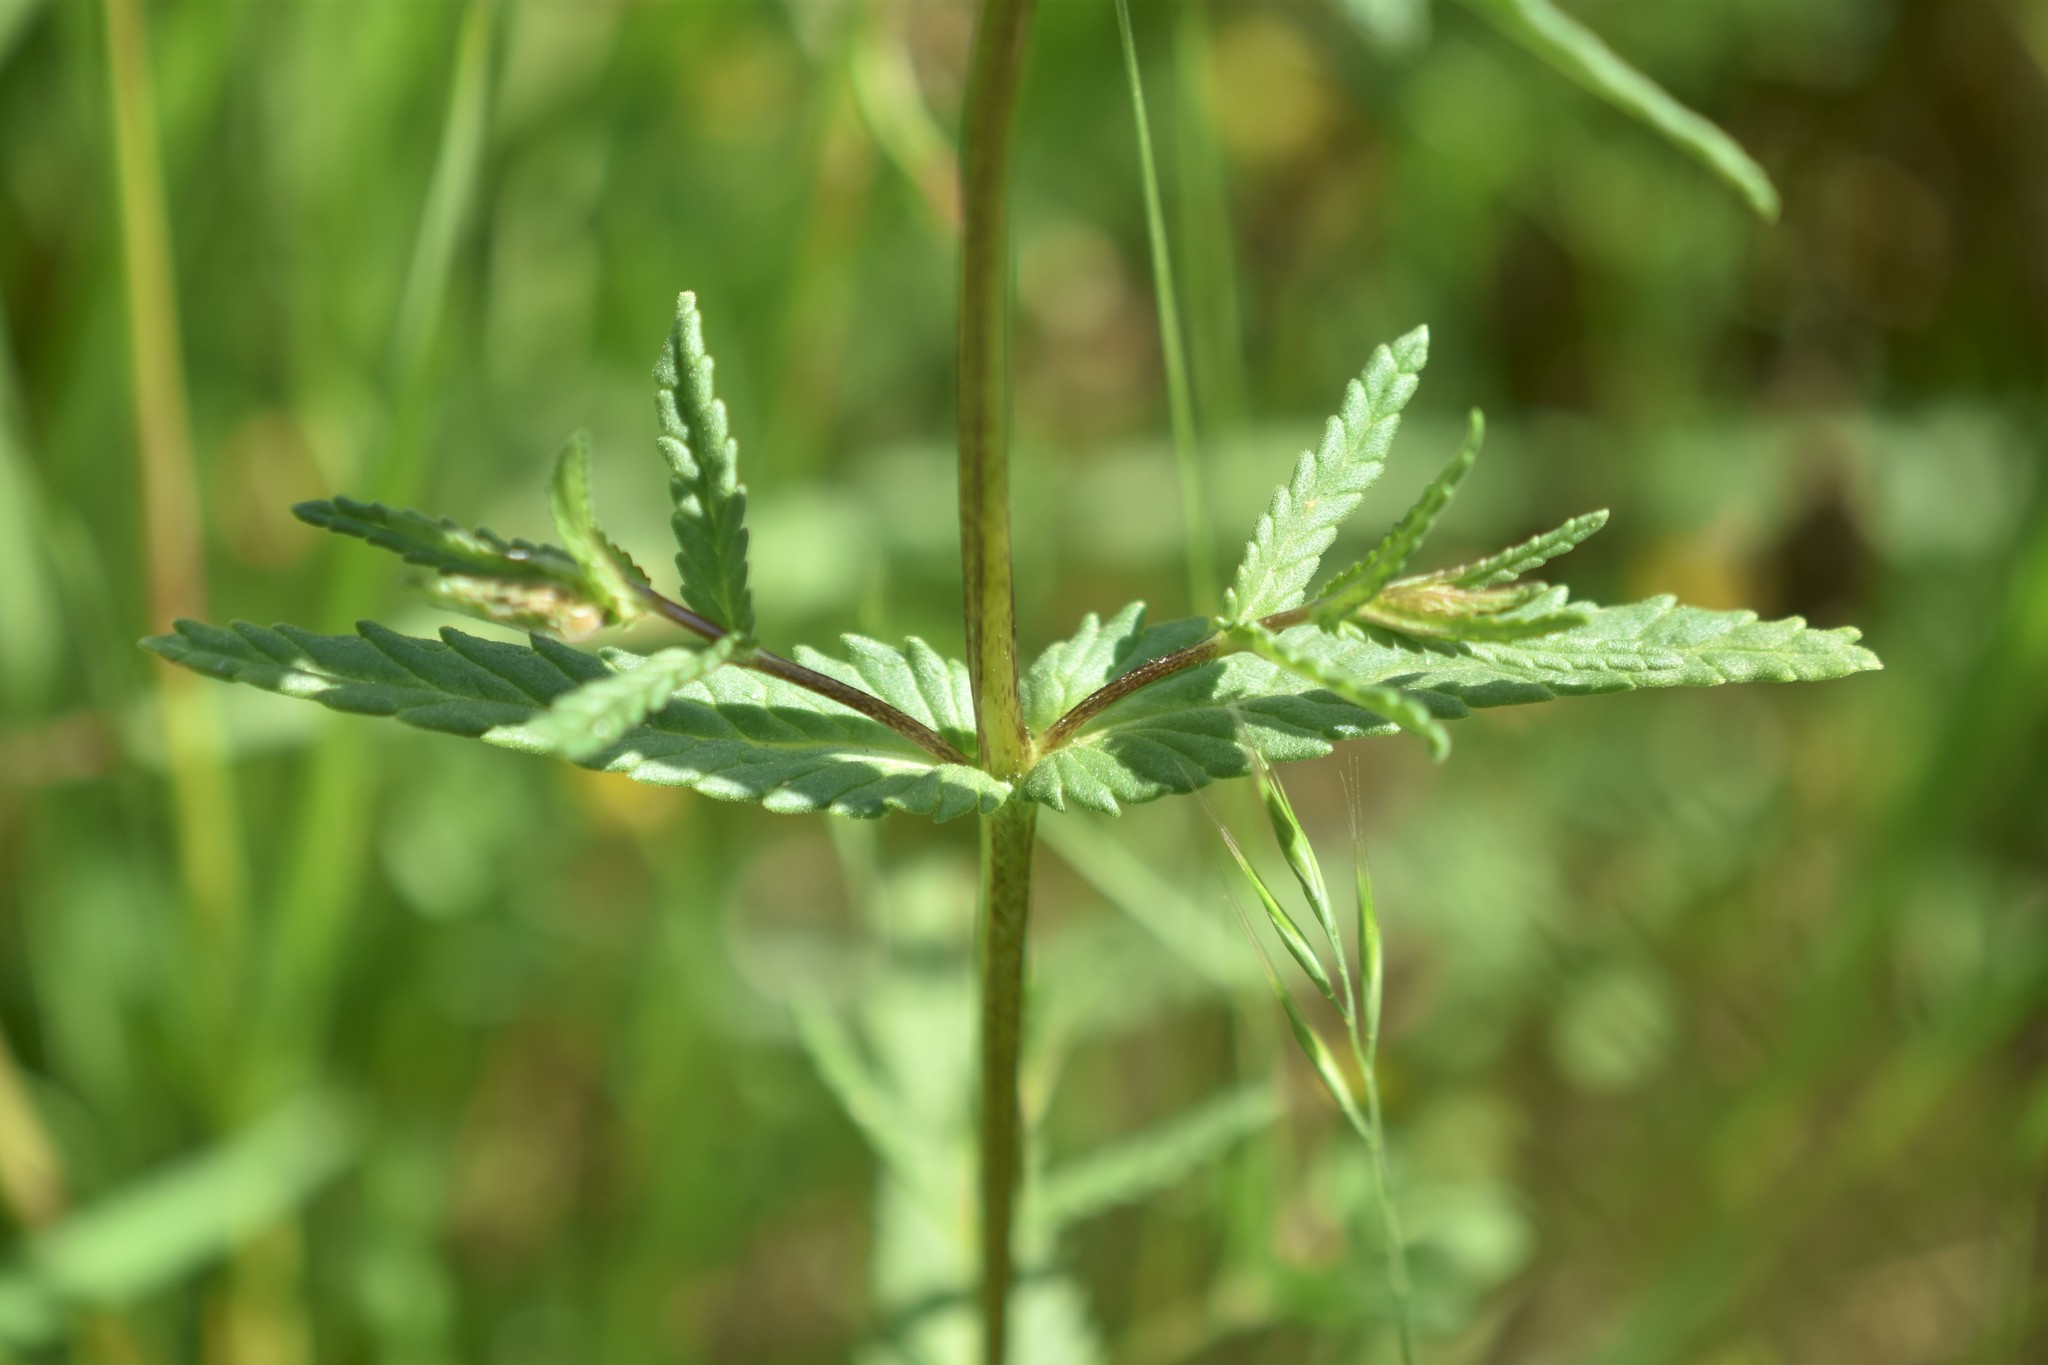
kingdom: Plantae
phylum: Tracheophyta
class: Magnoliopsida
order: Lamiales
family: Orobanchaceae
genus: Rhinanthus
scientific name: Rhinanthus minor
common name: Yellow-rattle
